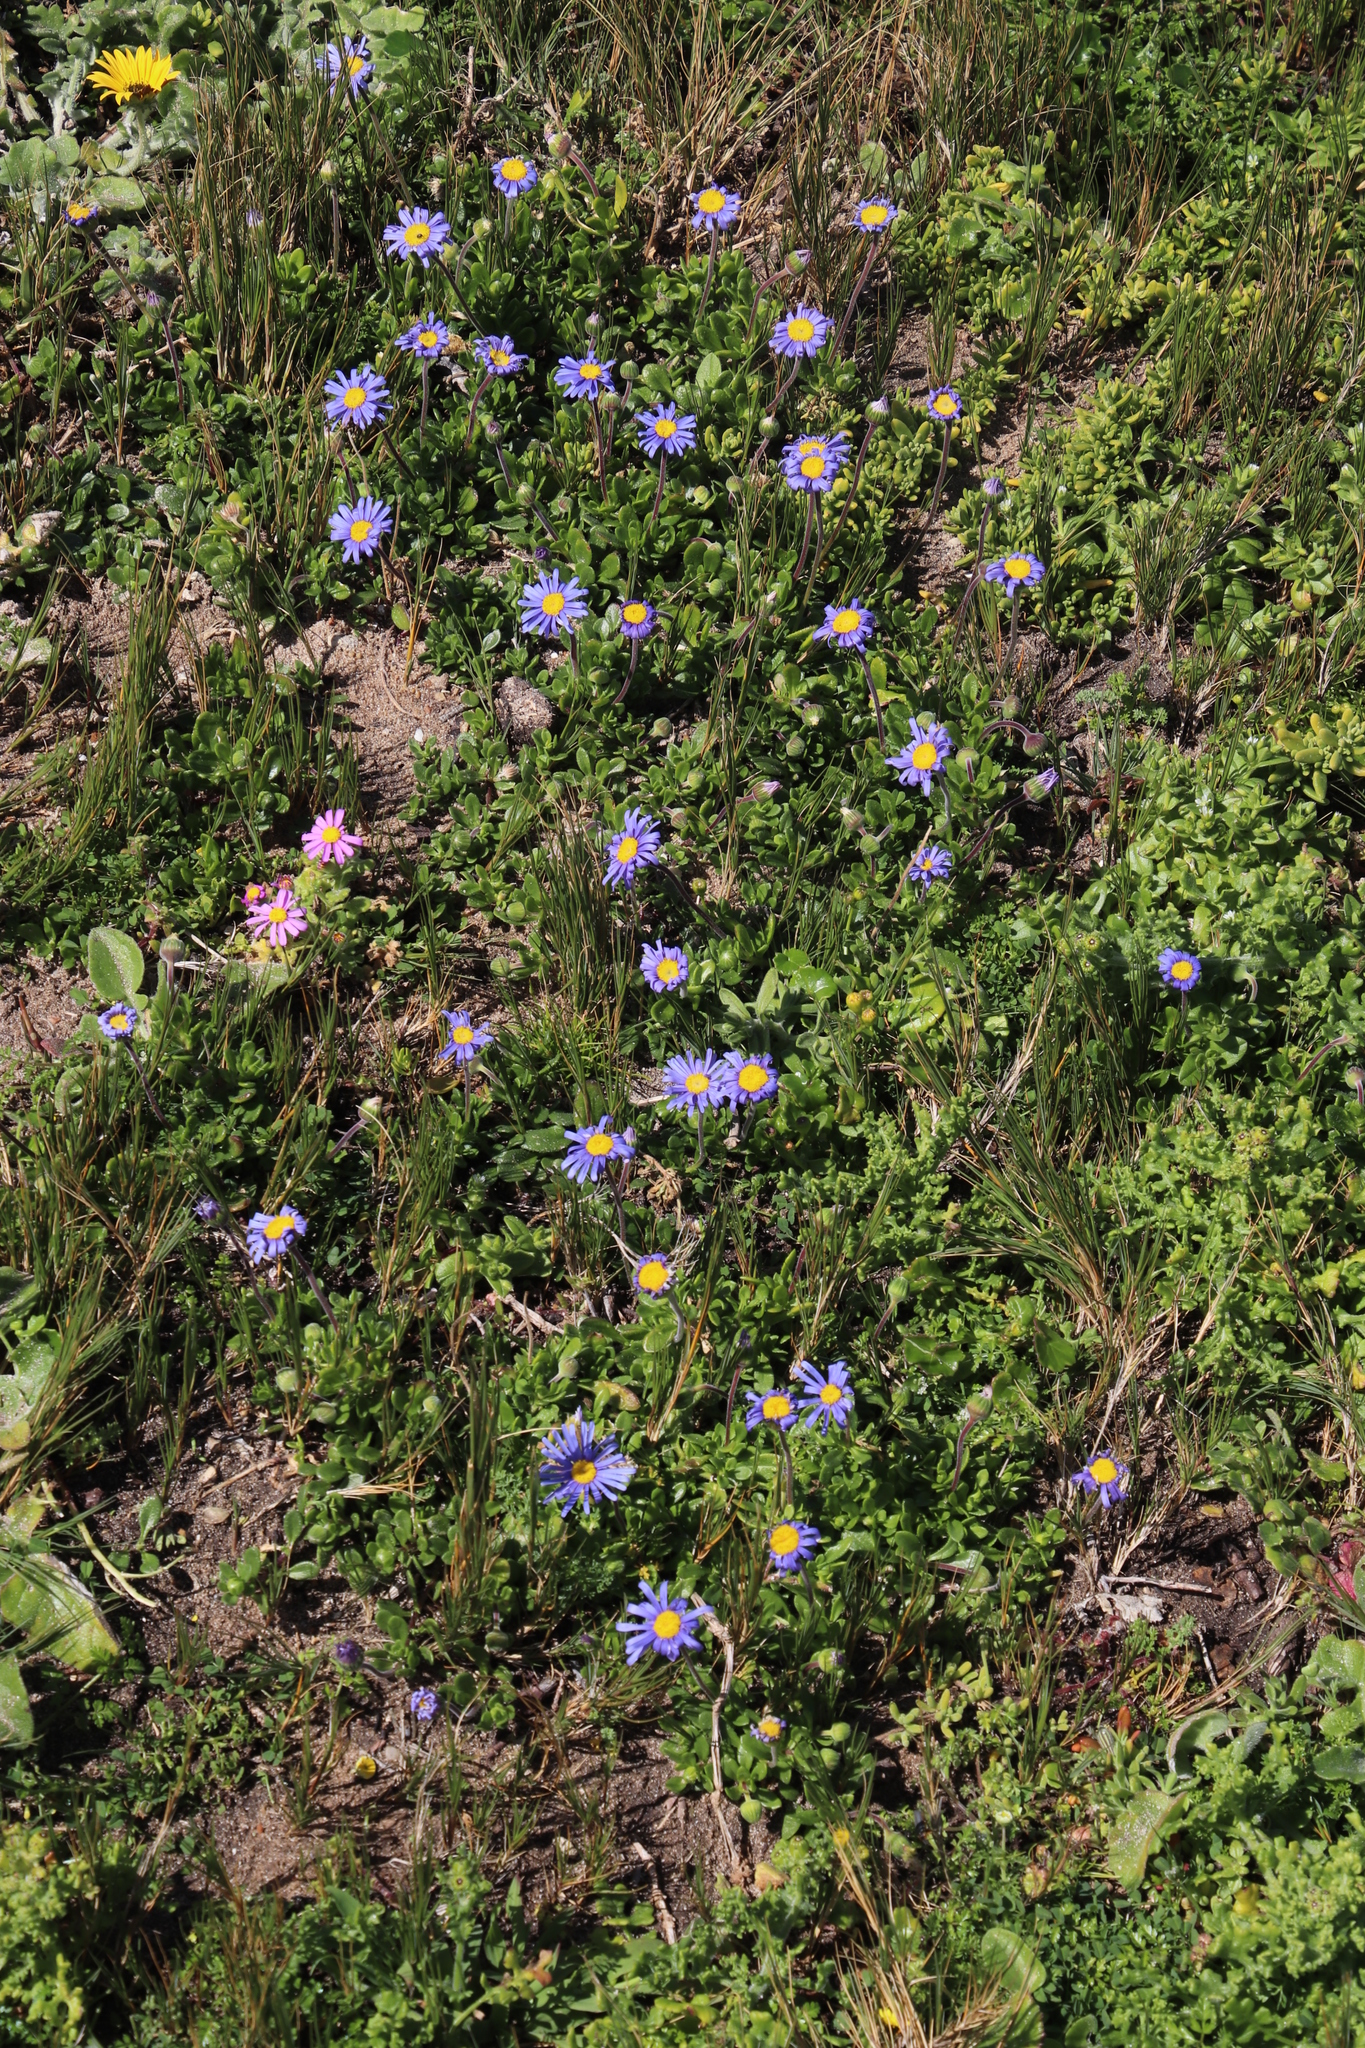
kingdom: Plantae
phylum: Tracheophyta
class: Magnoliopsida
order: Asterales
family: Asteraceae
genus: Felicia
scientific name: Felicia amoena
